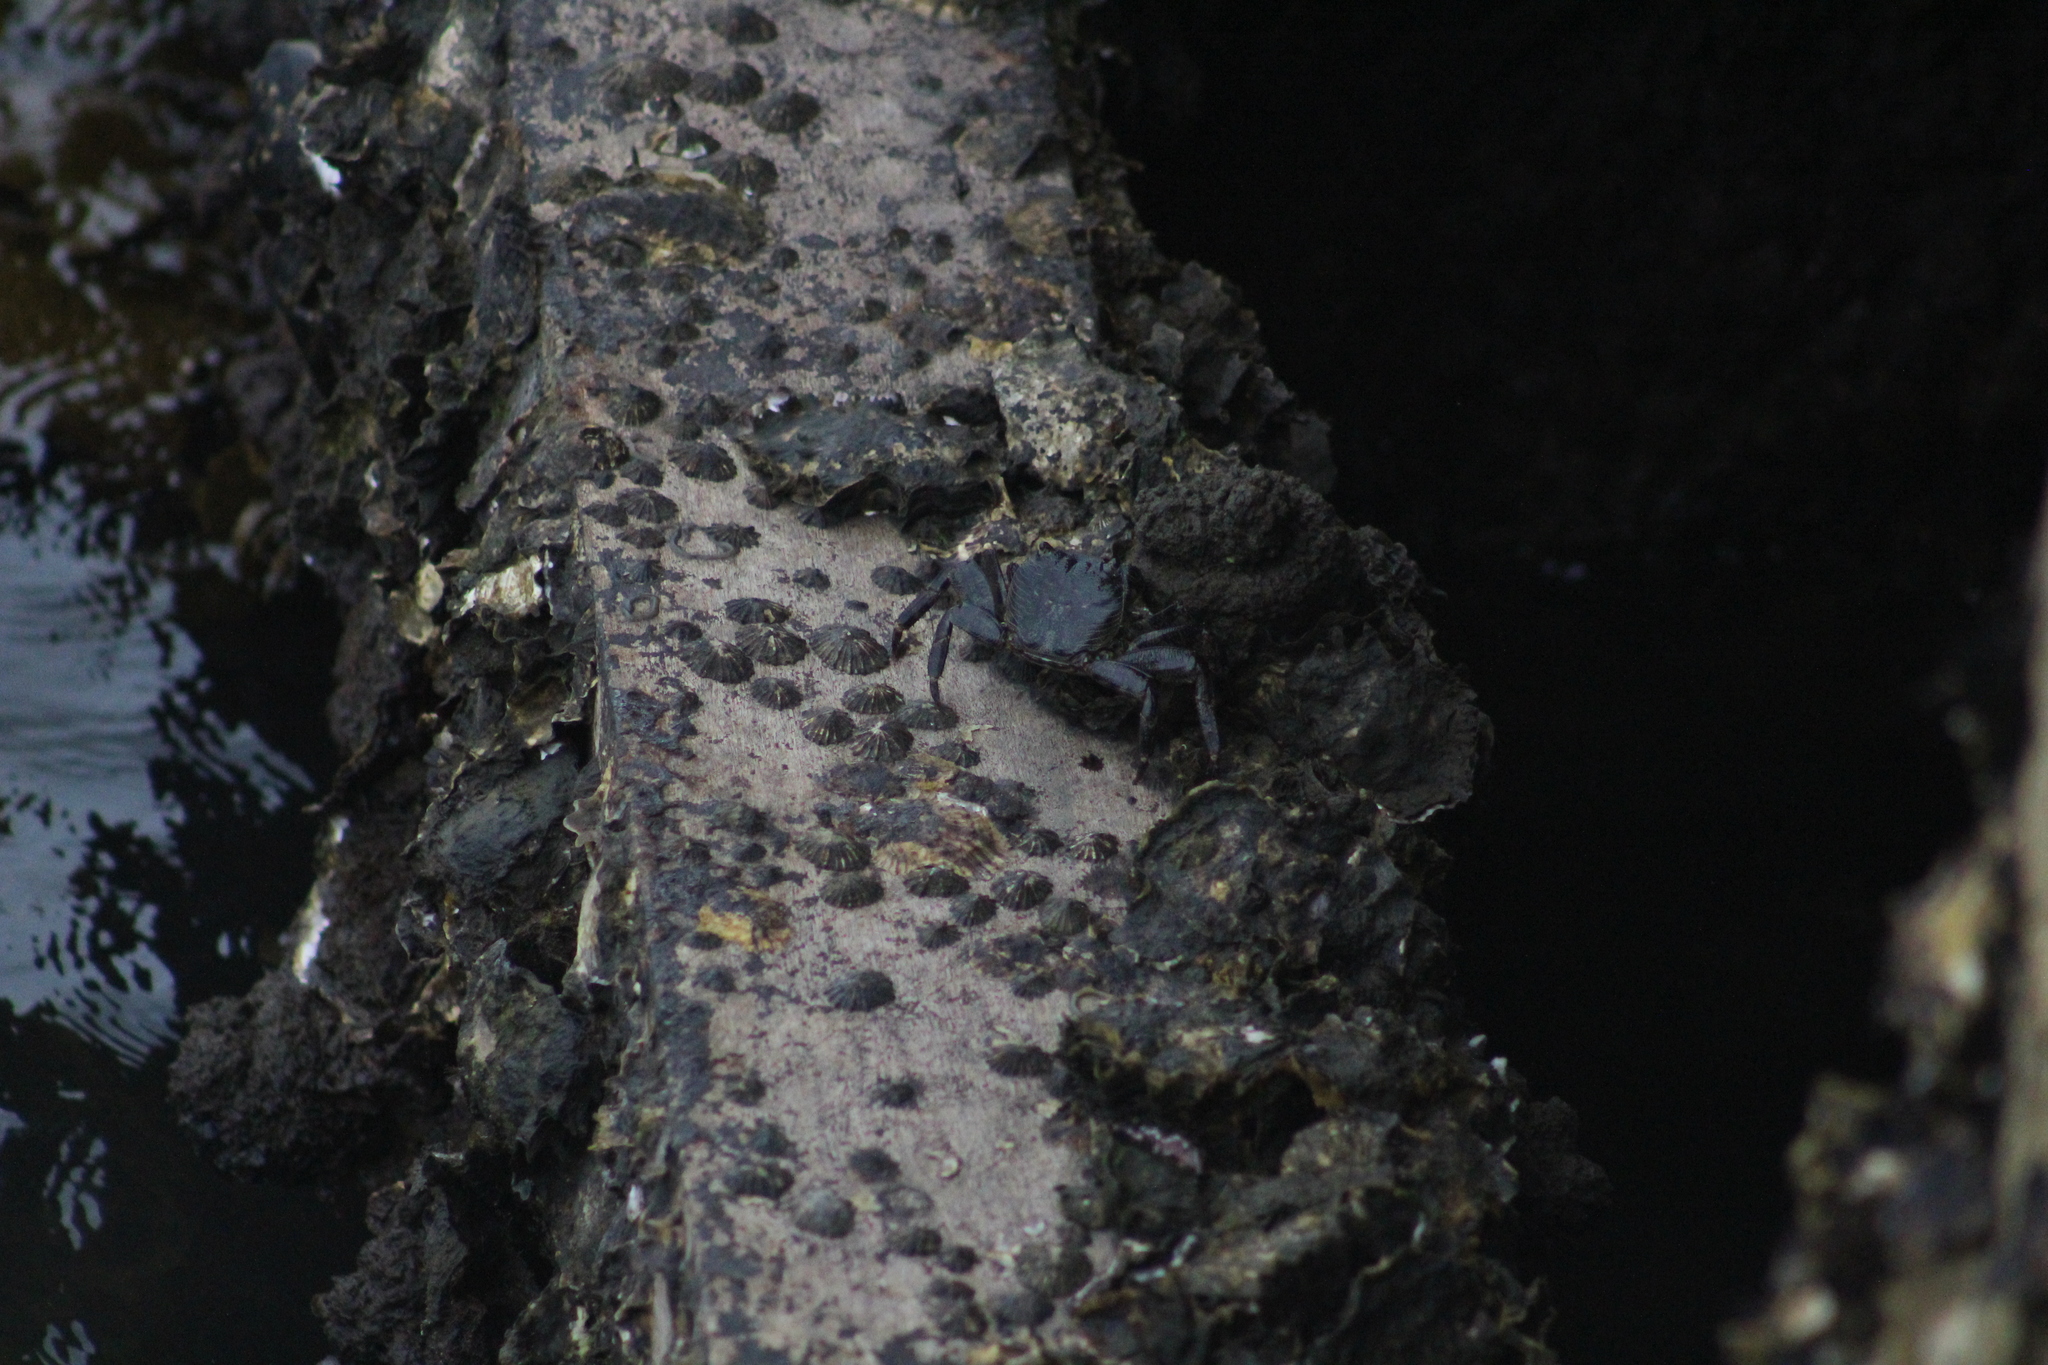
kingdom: Animalia
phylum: Arthropoda
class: Malacostraca
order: Decapoda
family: Grapsidae
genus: Leptograpsus
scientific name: Leptograpsus variegatus
